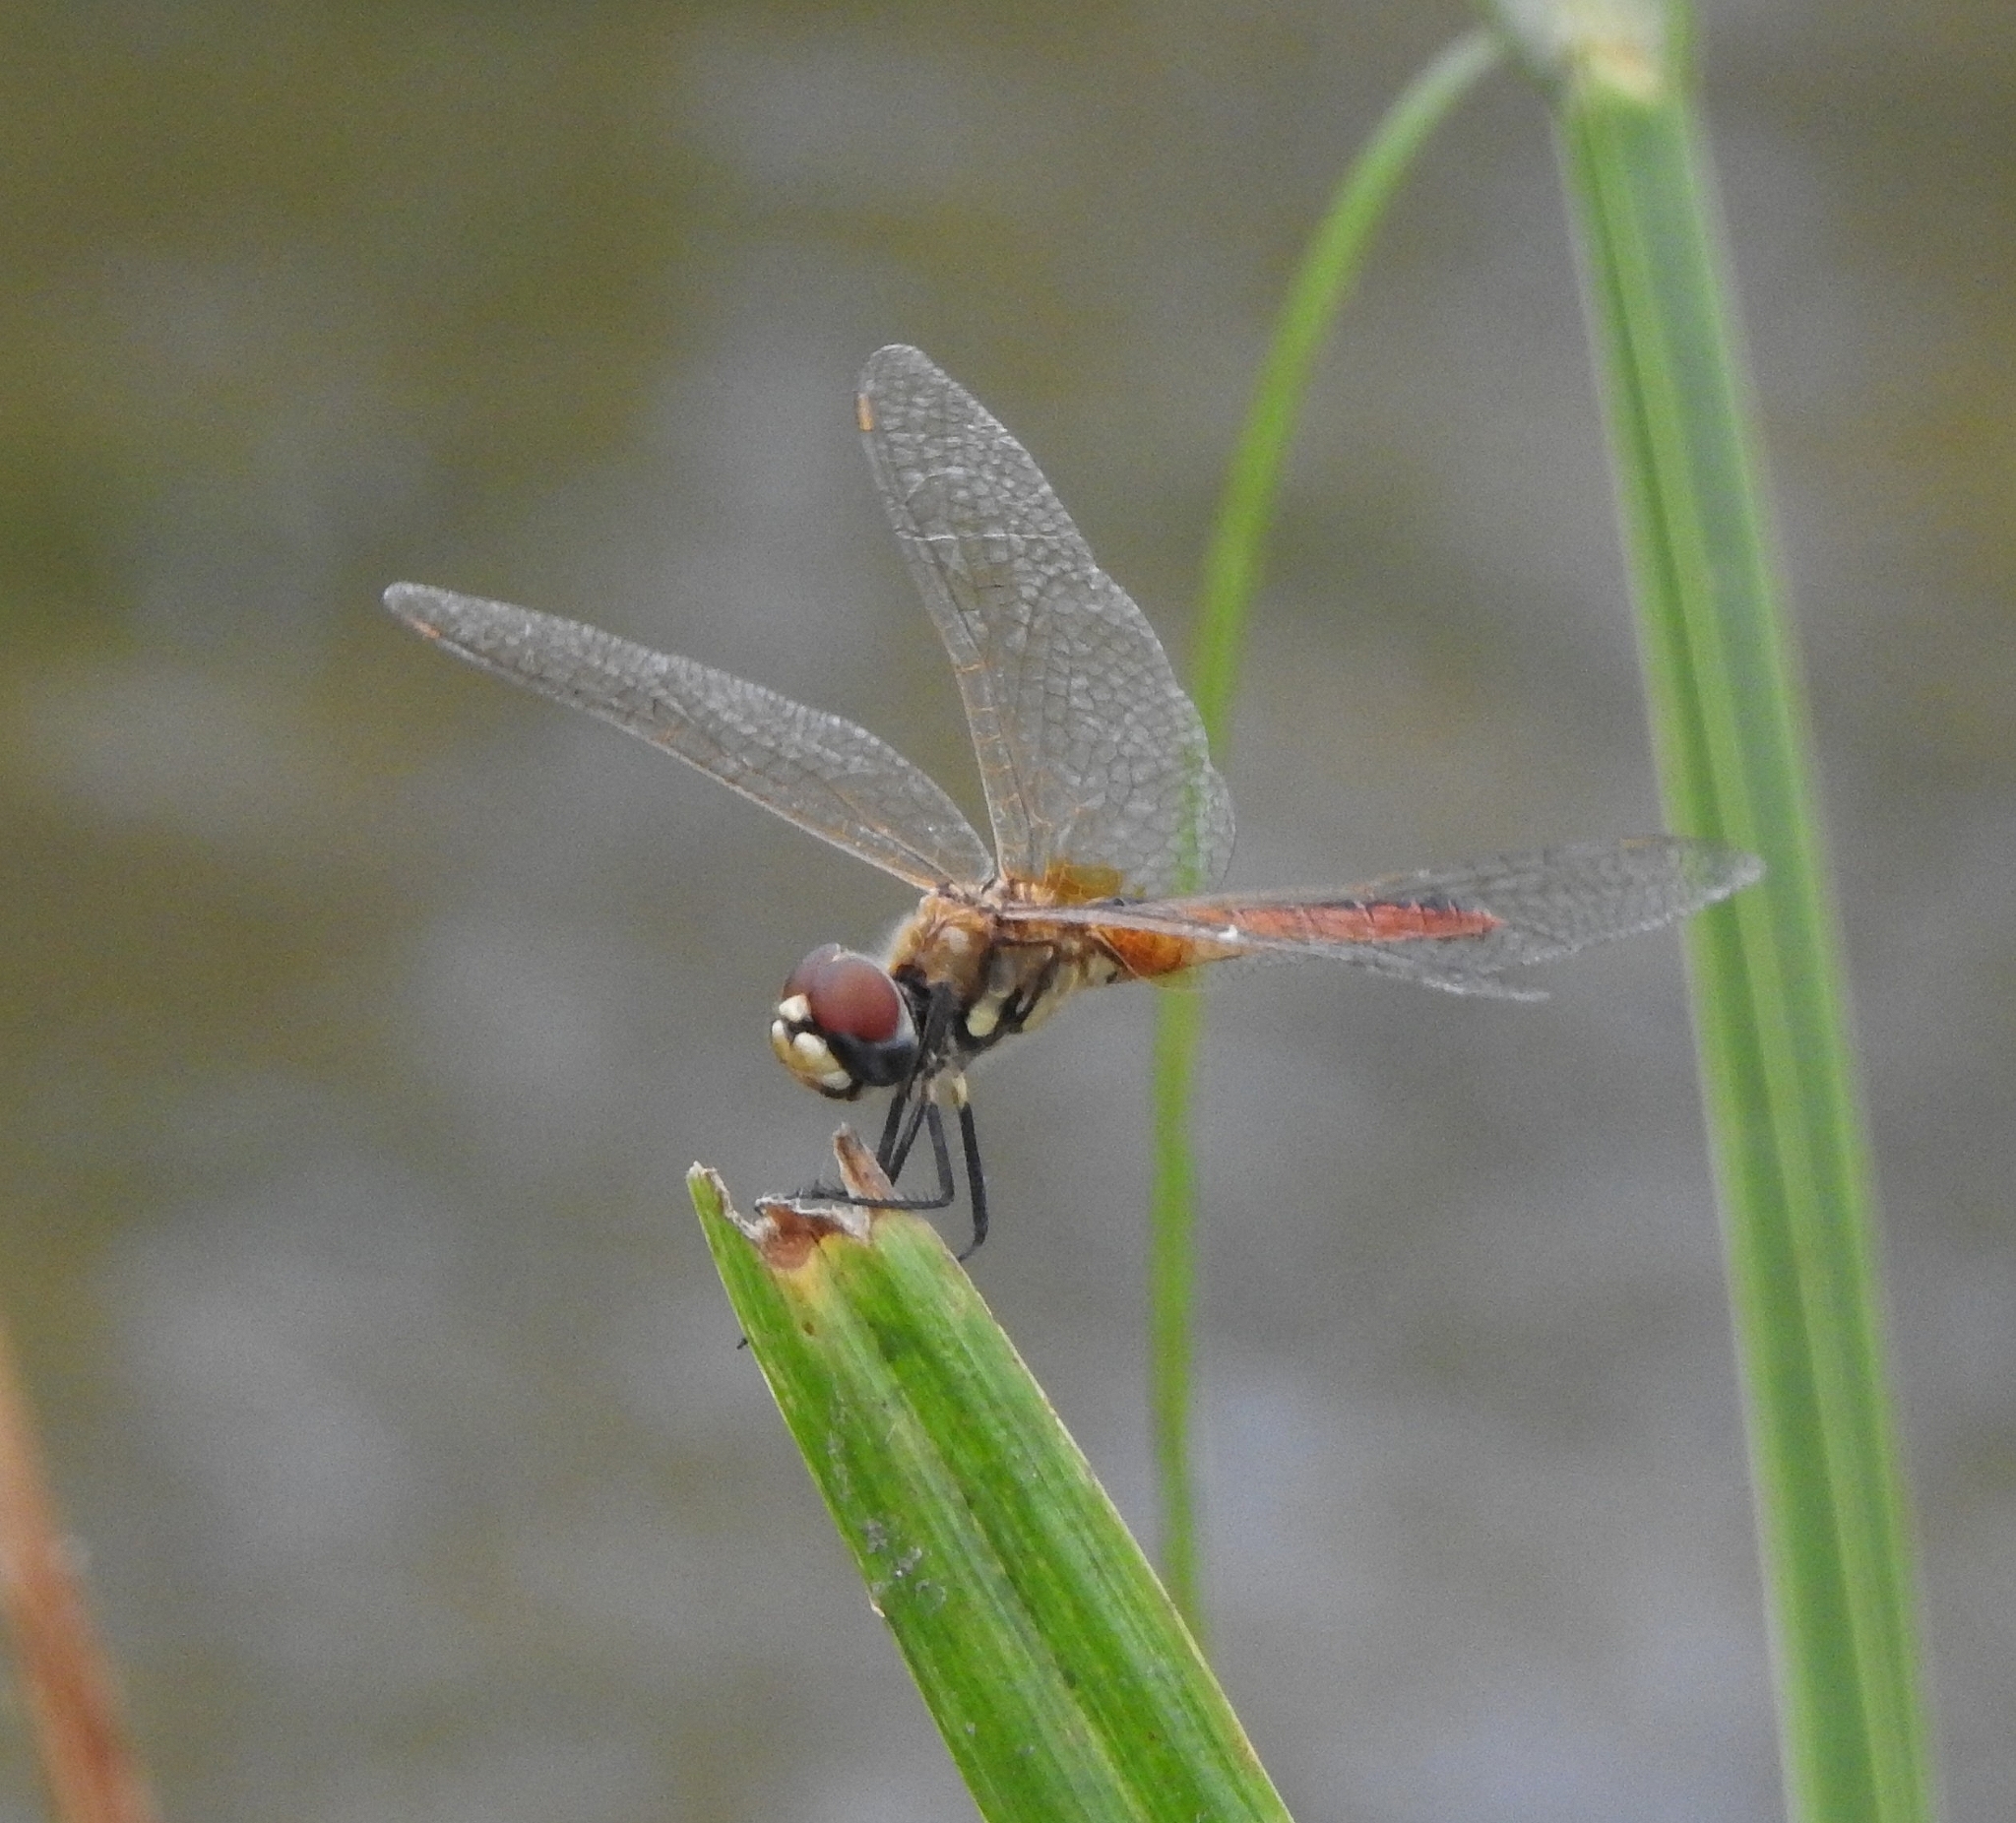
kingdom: Animalia
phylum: Arthropoda
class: Insecta
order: Odonata
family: Libellulidae
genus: Macrodiplax
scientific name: Macrodiplax cora
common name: Coastal glider
